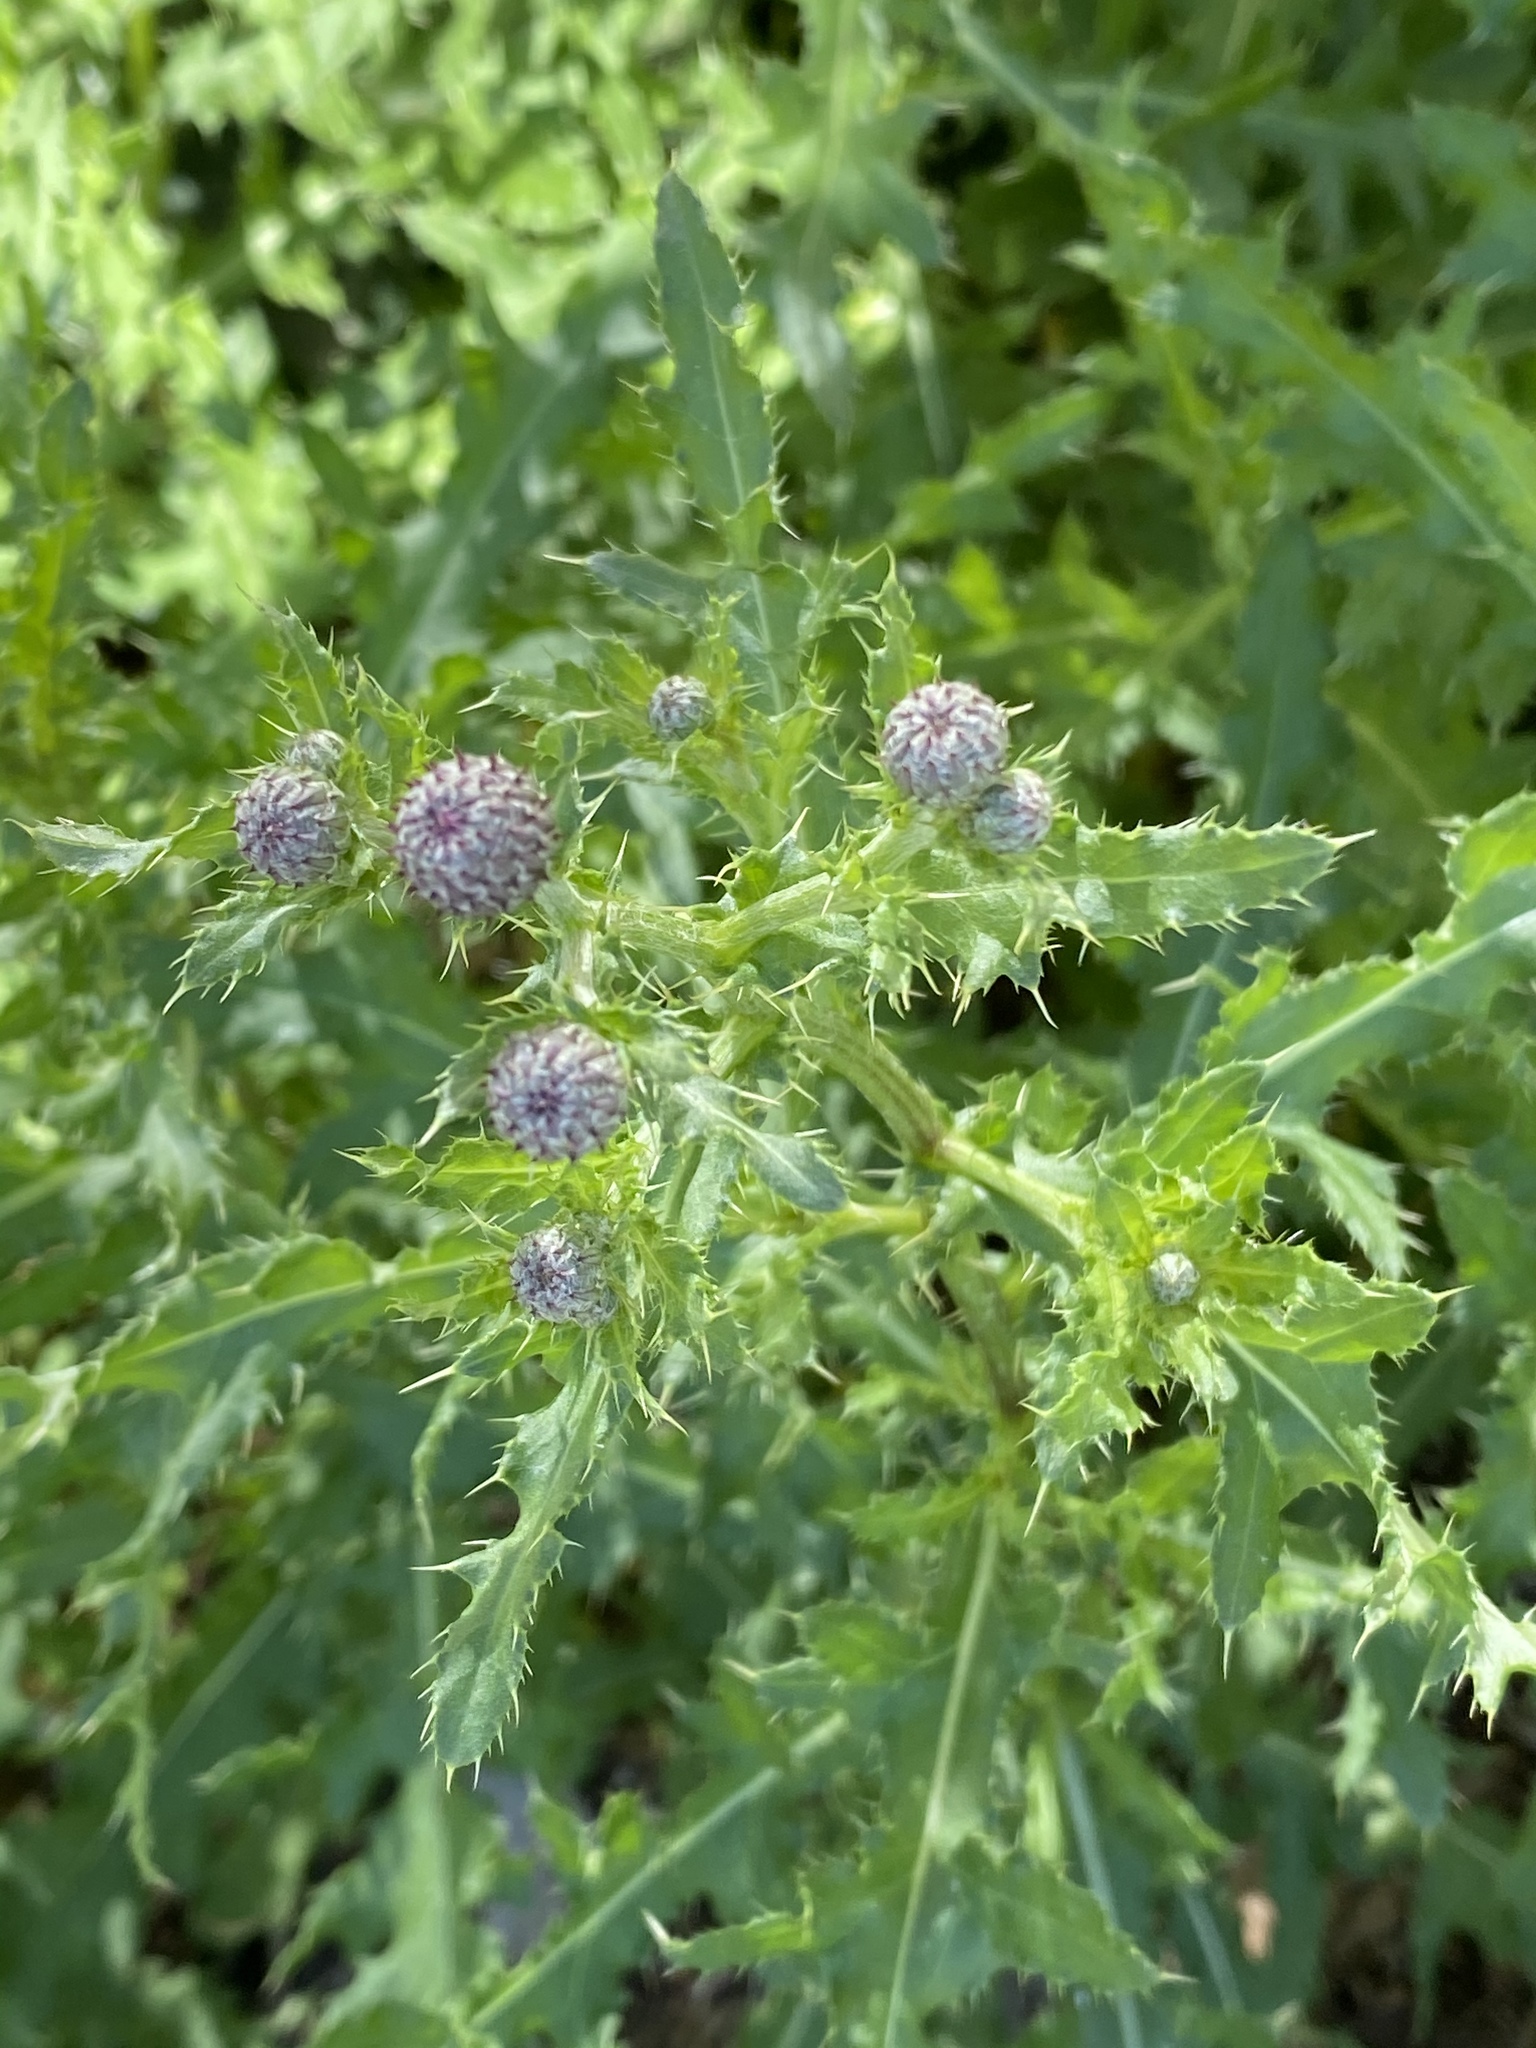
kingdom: Plantae
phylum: Tracheophyta
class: Magnoliopsida
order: Asterales
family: Asteraceae
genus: Cirsium
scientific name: Cirsium arvense
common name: Creeping thistle
